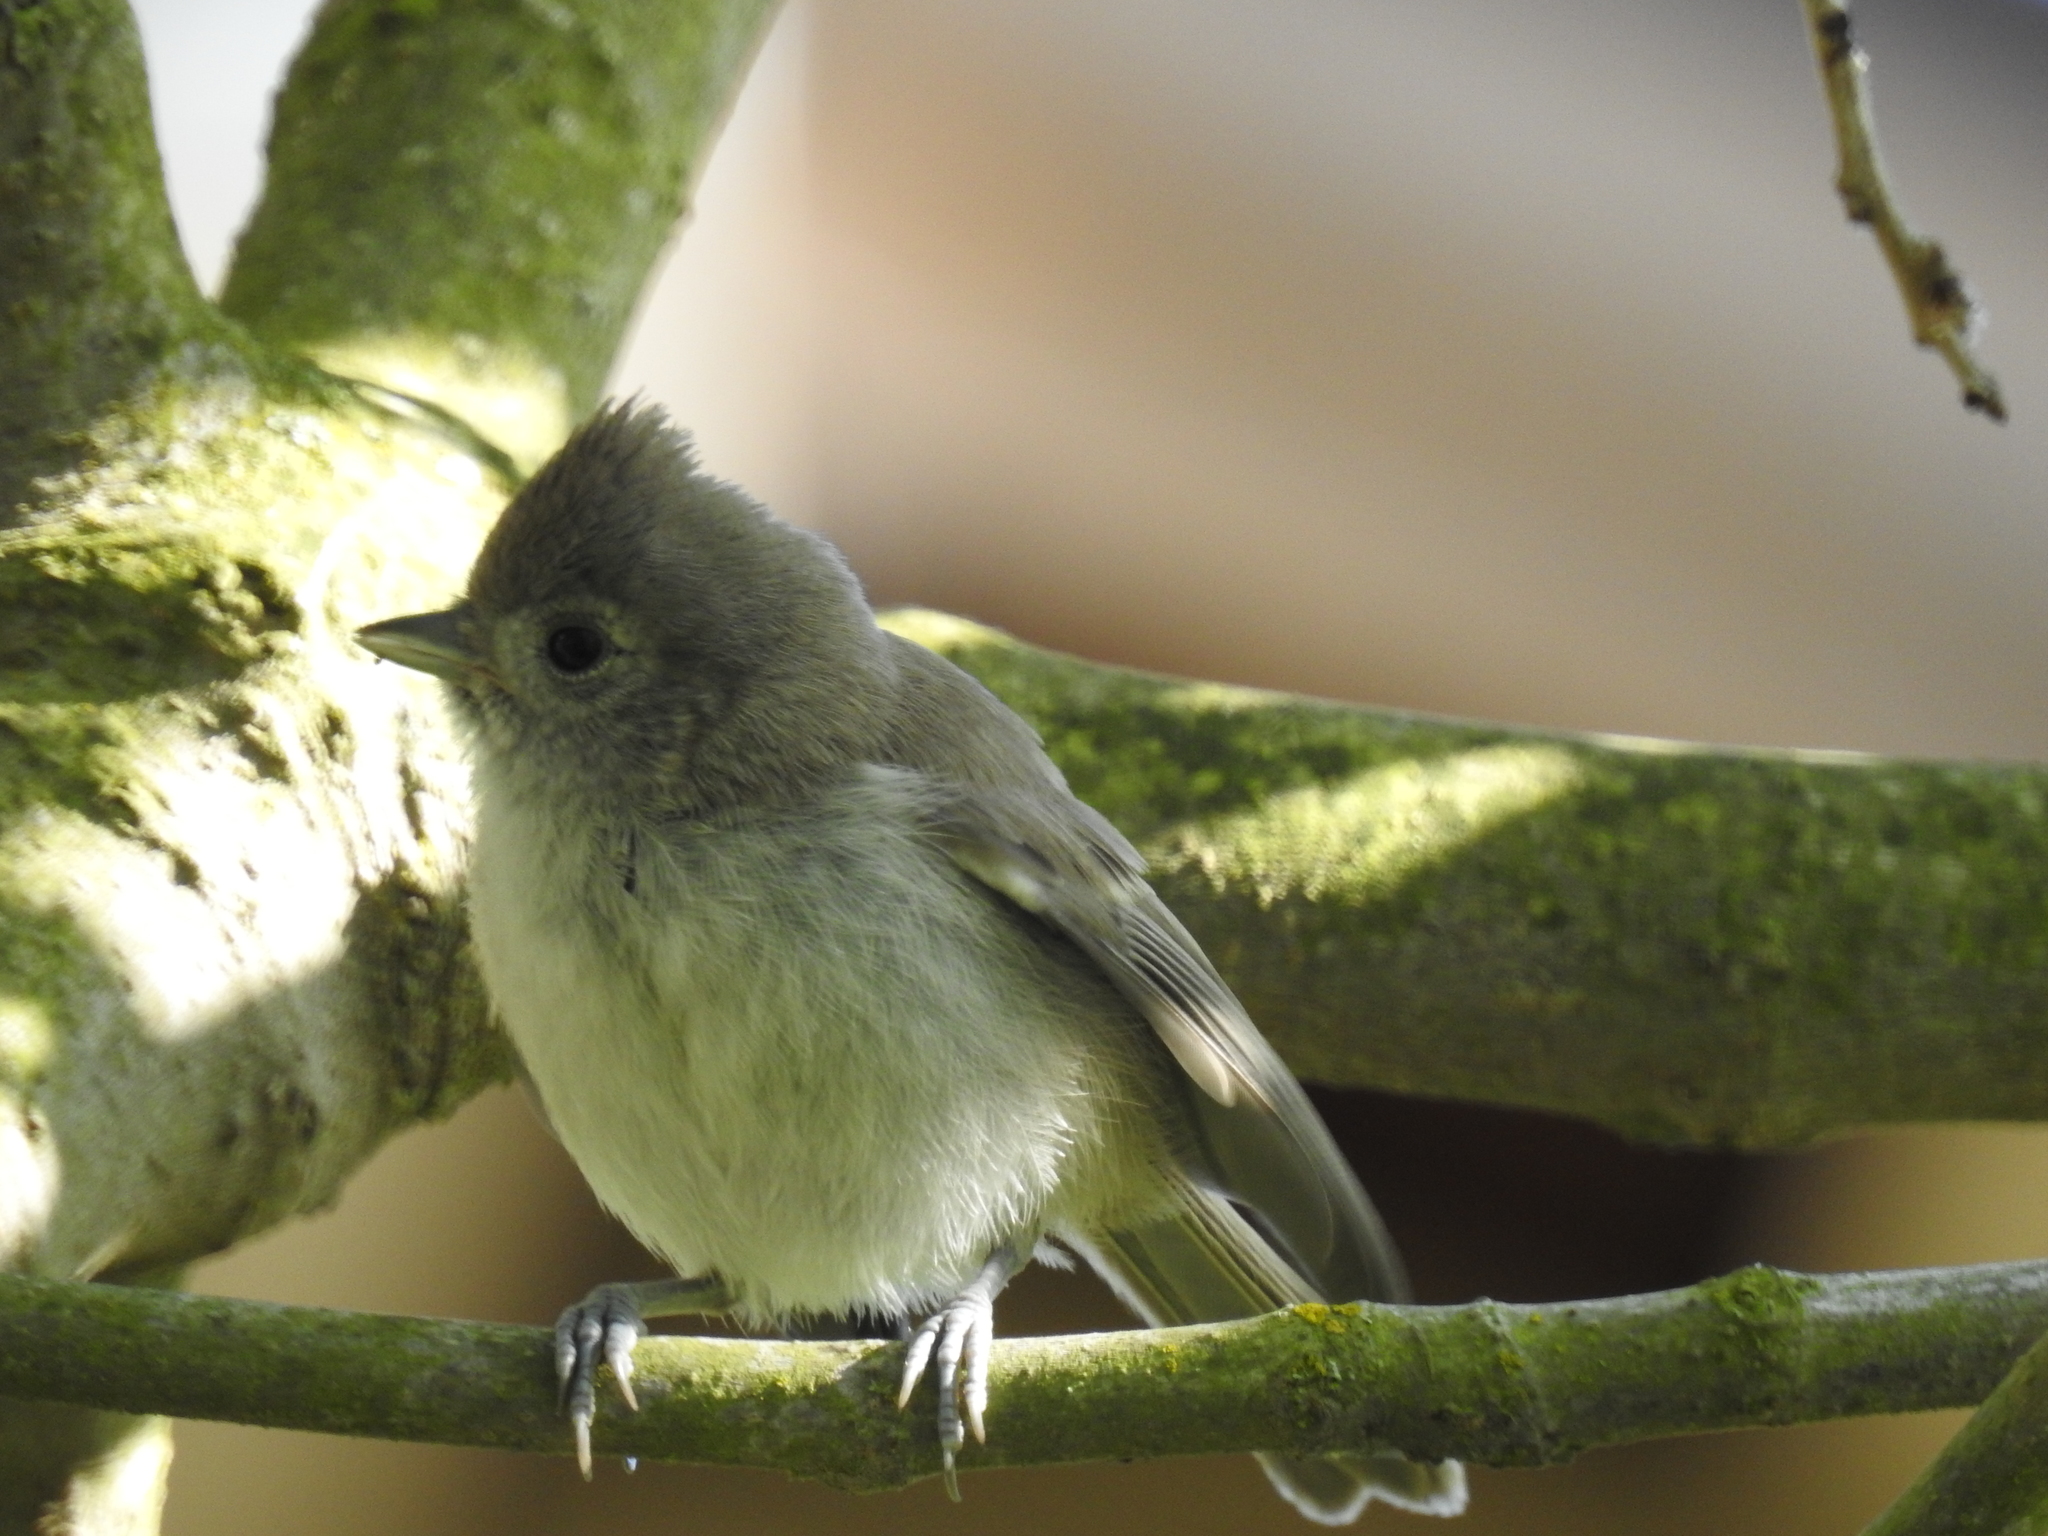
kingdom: Animalia
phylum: Chordata
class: Aves
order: Passeriformes
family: Paridae
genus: Baeolophus
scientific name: Baeolophus inornatus
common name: Oak titmouse
